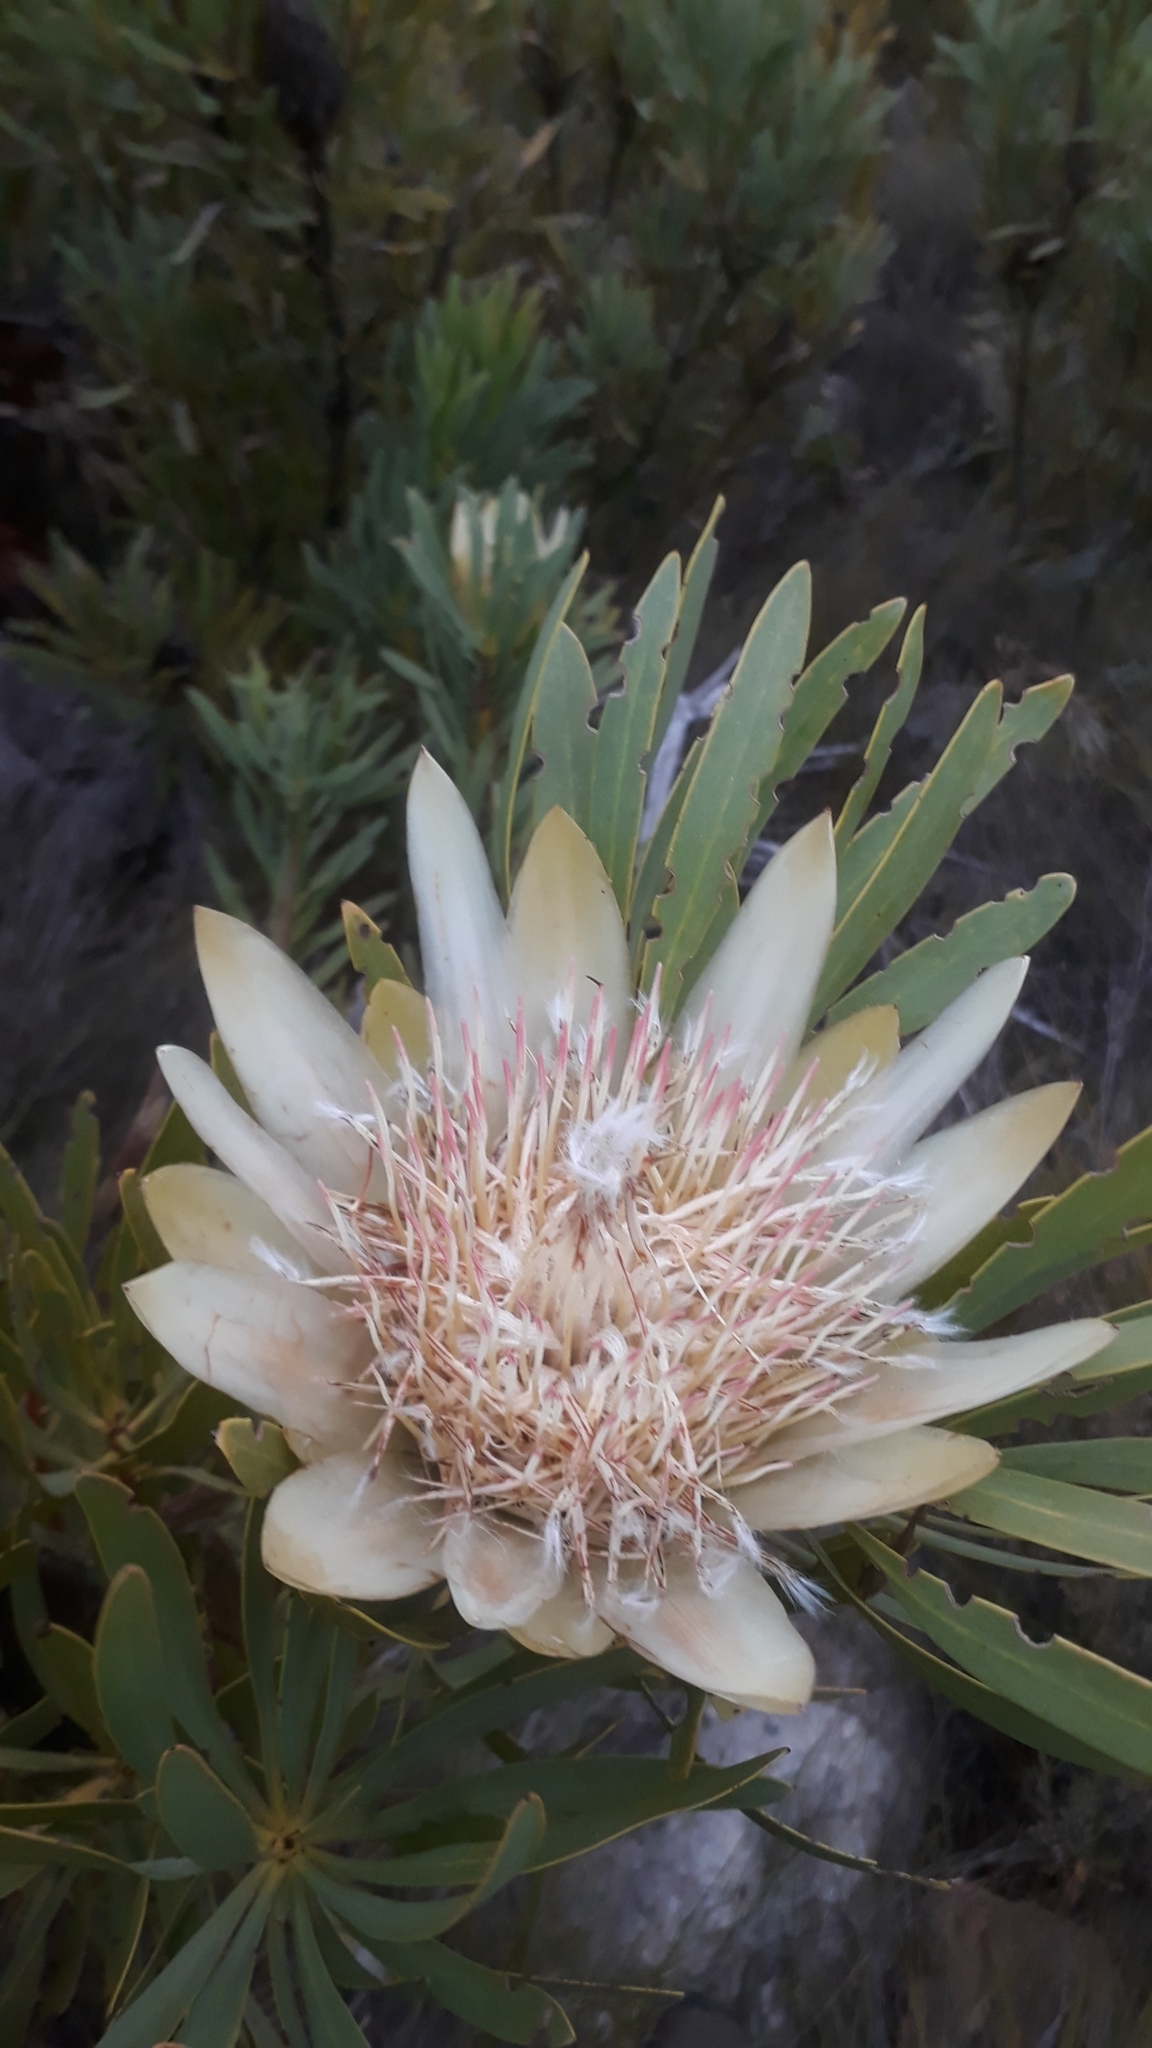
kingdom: Plantae
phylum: Tracheophyta
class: Magnoliopsida
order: Proteales
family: Proteaceae
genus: Protea
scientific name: Protea repens
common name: Sugarbush
